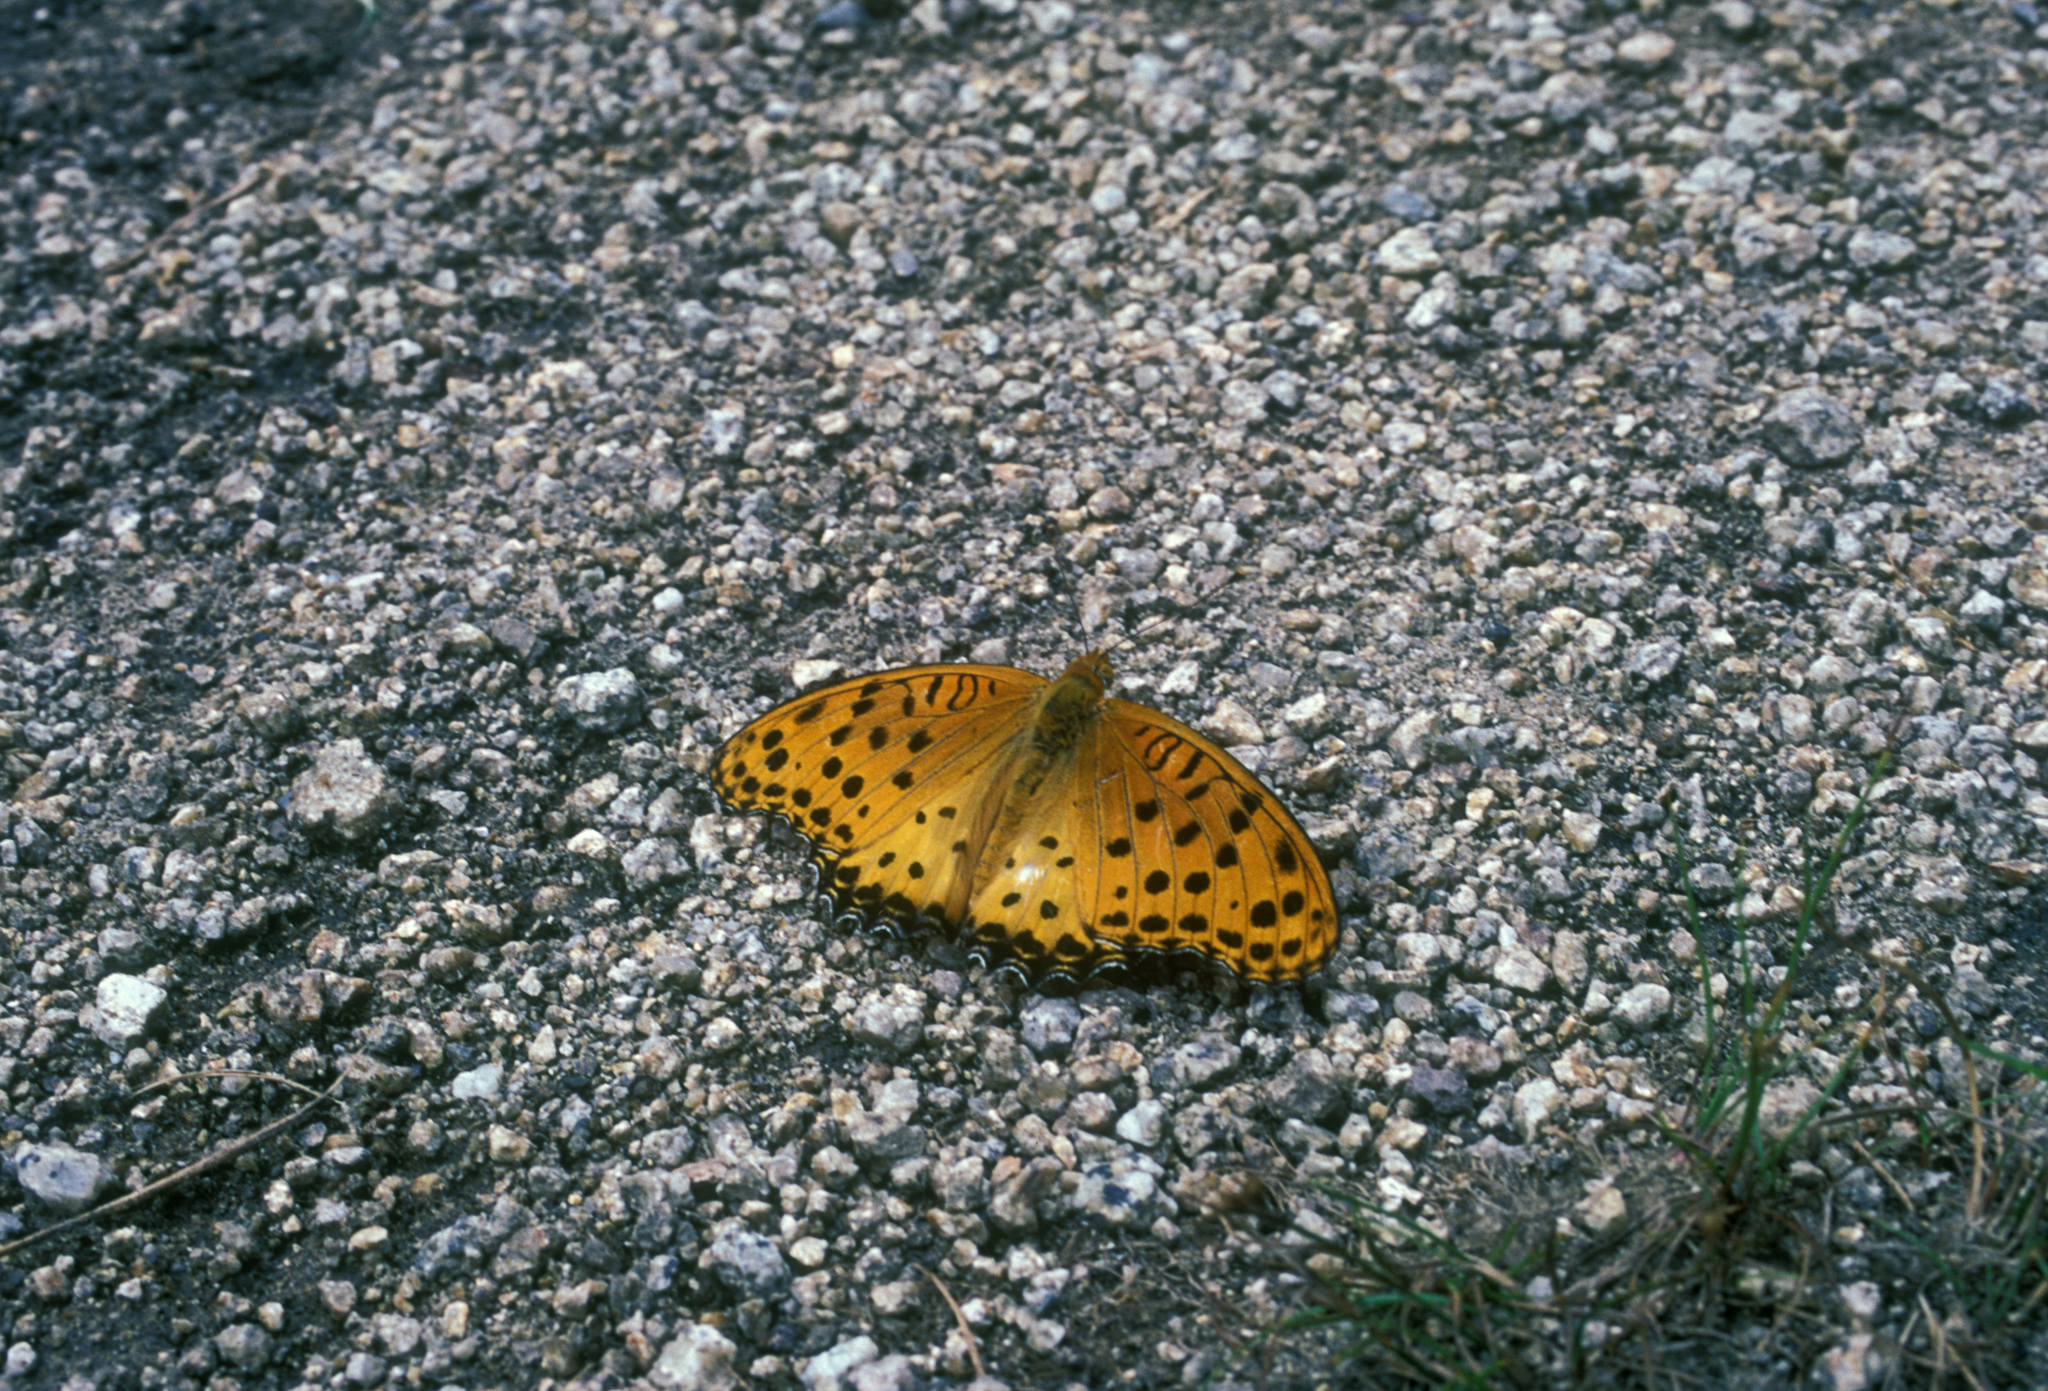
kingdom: Animalia
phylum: Arthropoda
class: Insecta
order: Lepidoptera
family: Nymphalidae
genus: Argynnis
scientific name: Argynnis hyperbius
